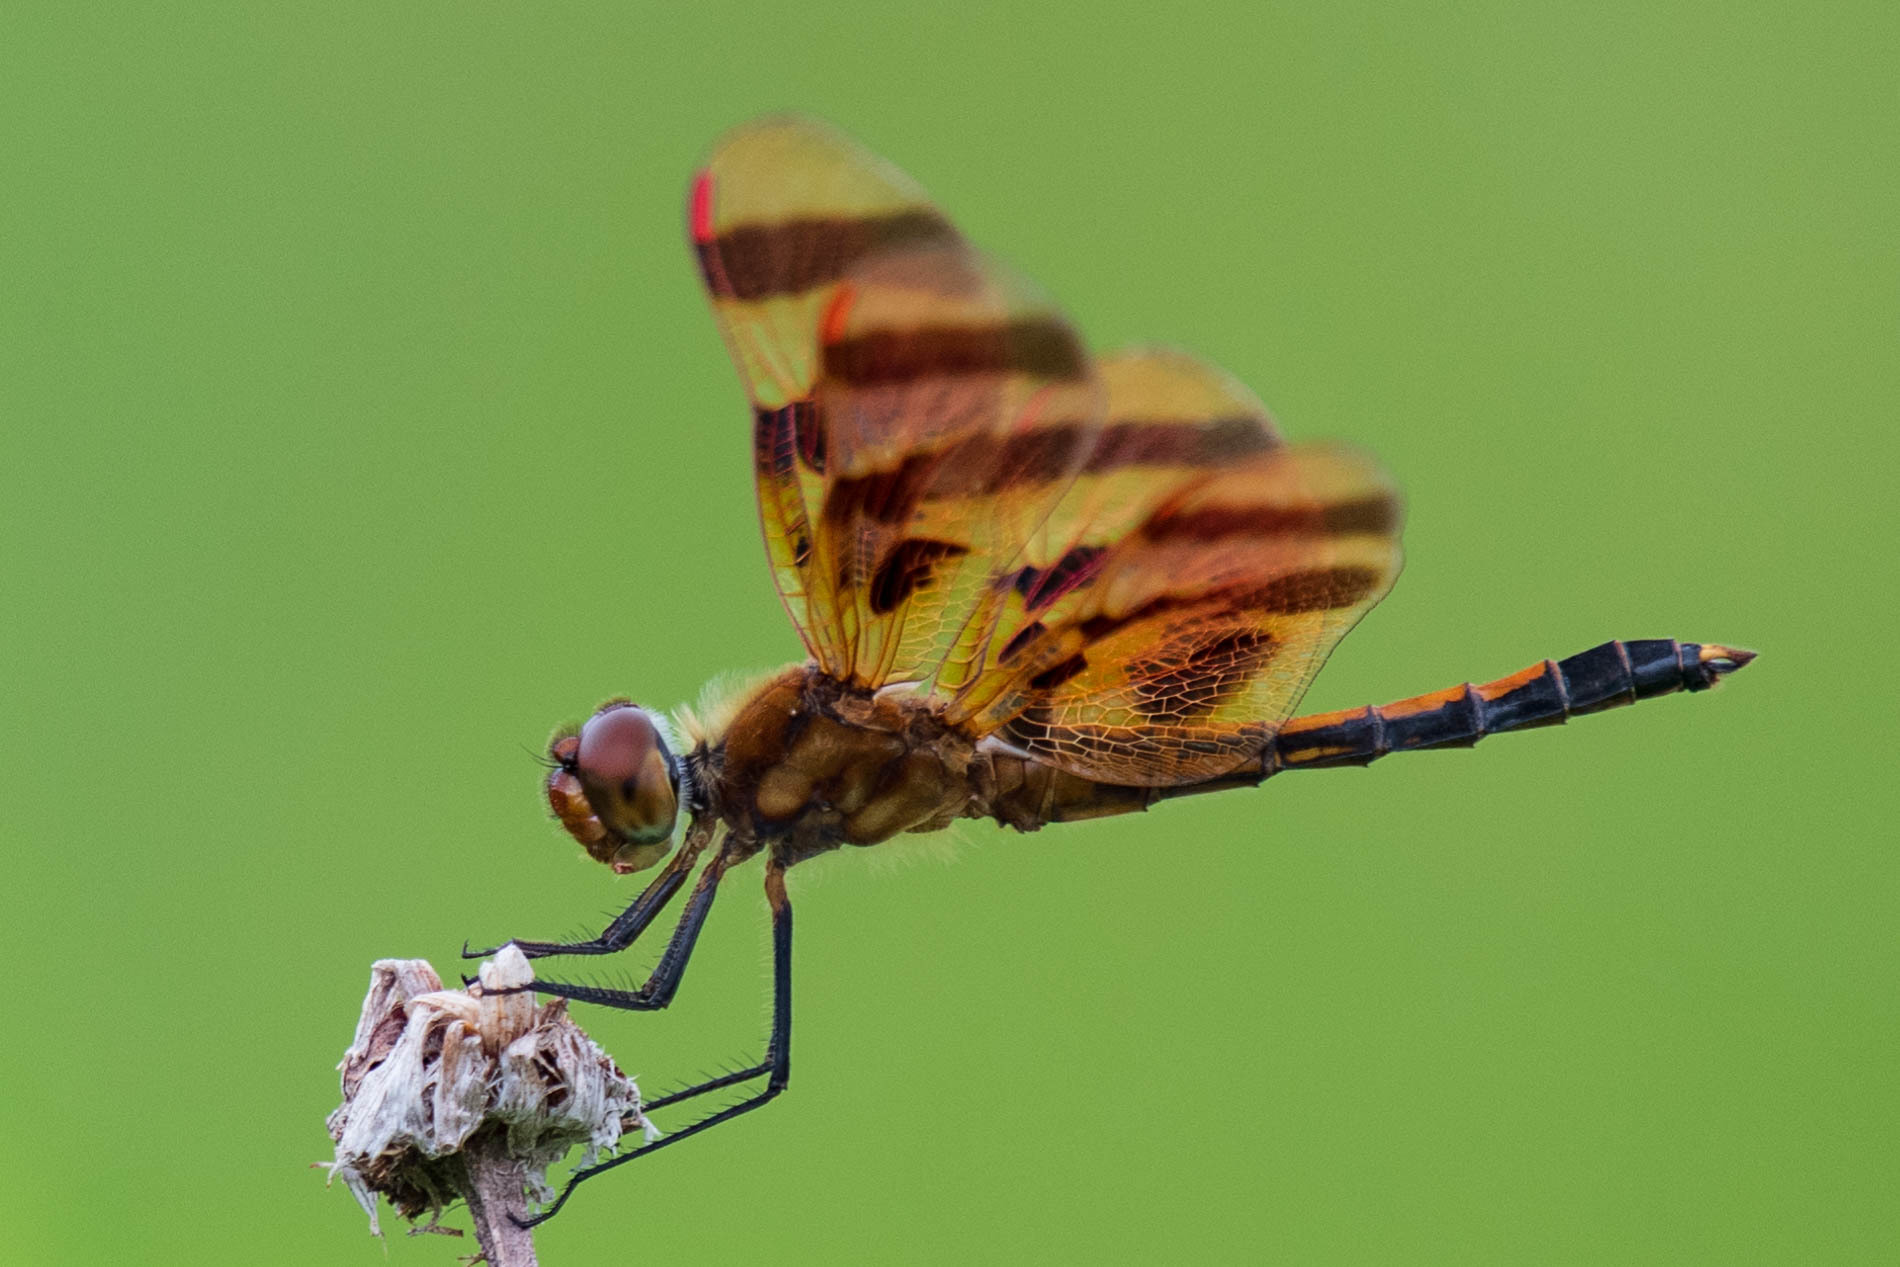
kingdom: Animalia
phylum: Arthropoda
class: Insecta
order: Odonata
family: Libellulidae
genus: Celithemis
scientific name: Celithemis eponina
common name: Halloween pennant
